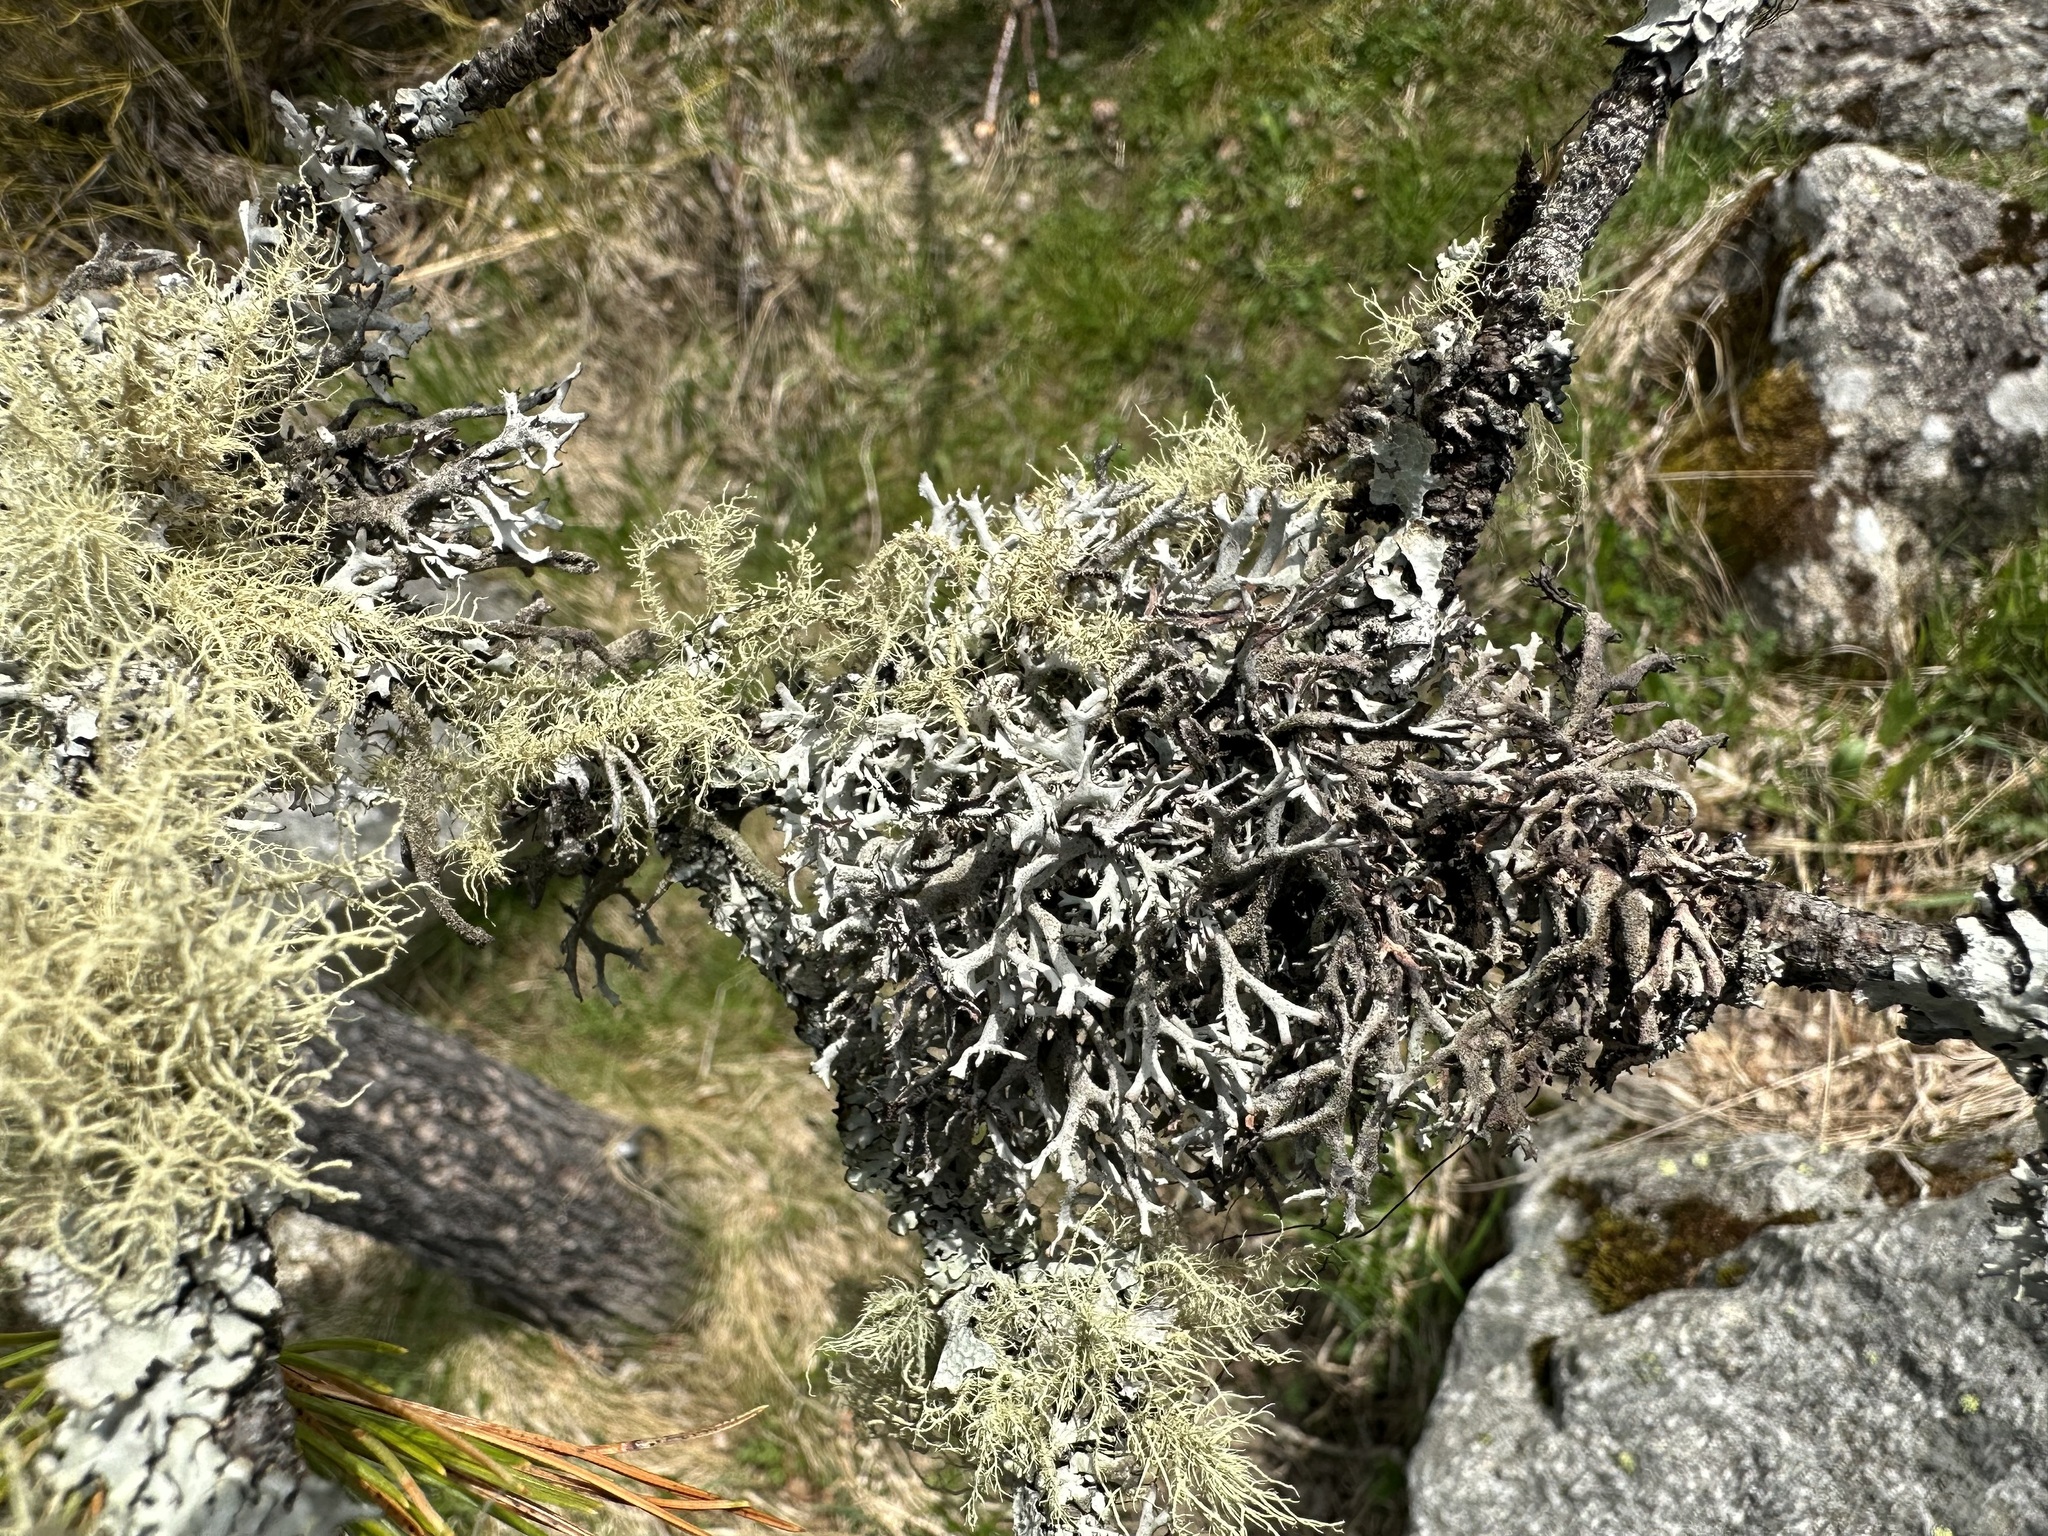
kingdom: Fungi
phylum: Ascomycota
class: Lecanoromycetes
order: Lecanorales
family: Parmeliaceae
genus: Pseudevernia
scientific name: Pseudevernia furfuracea
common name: Tree moss
